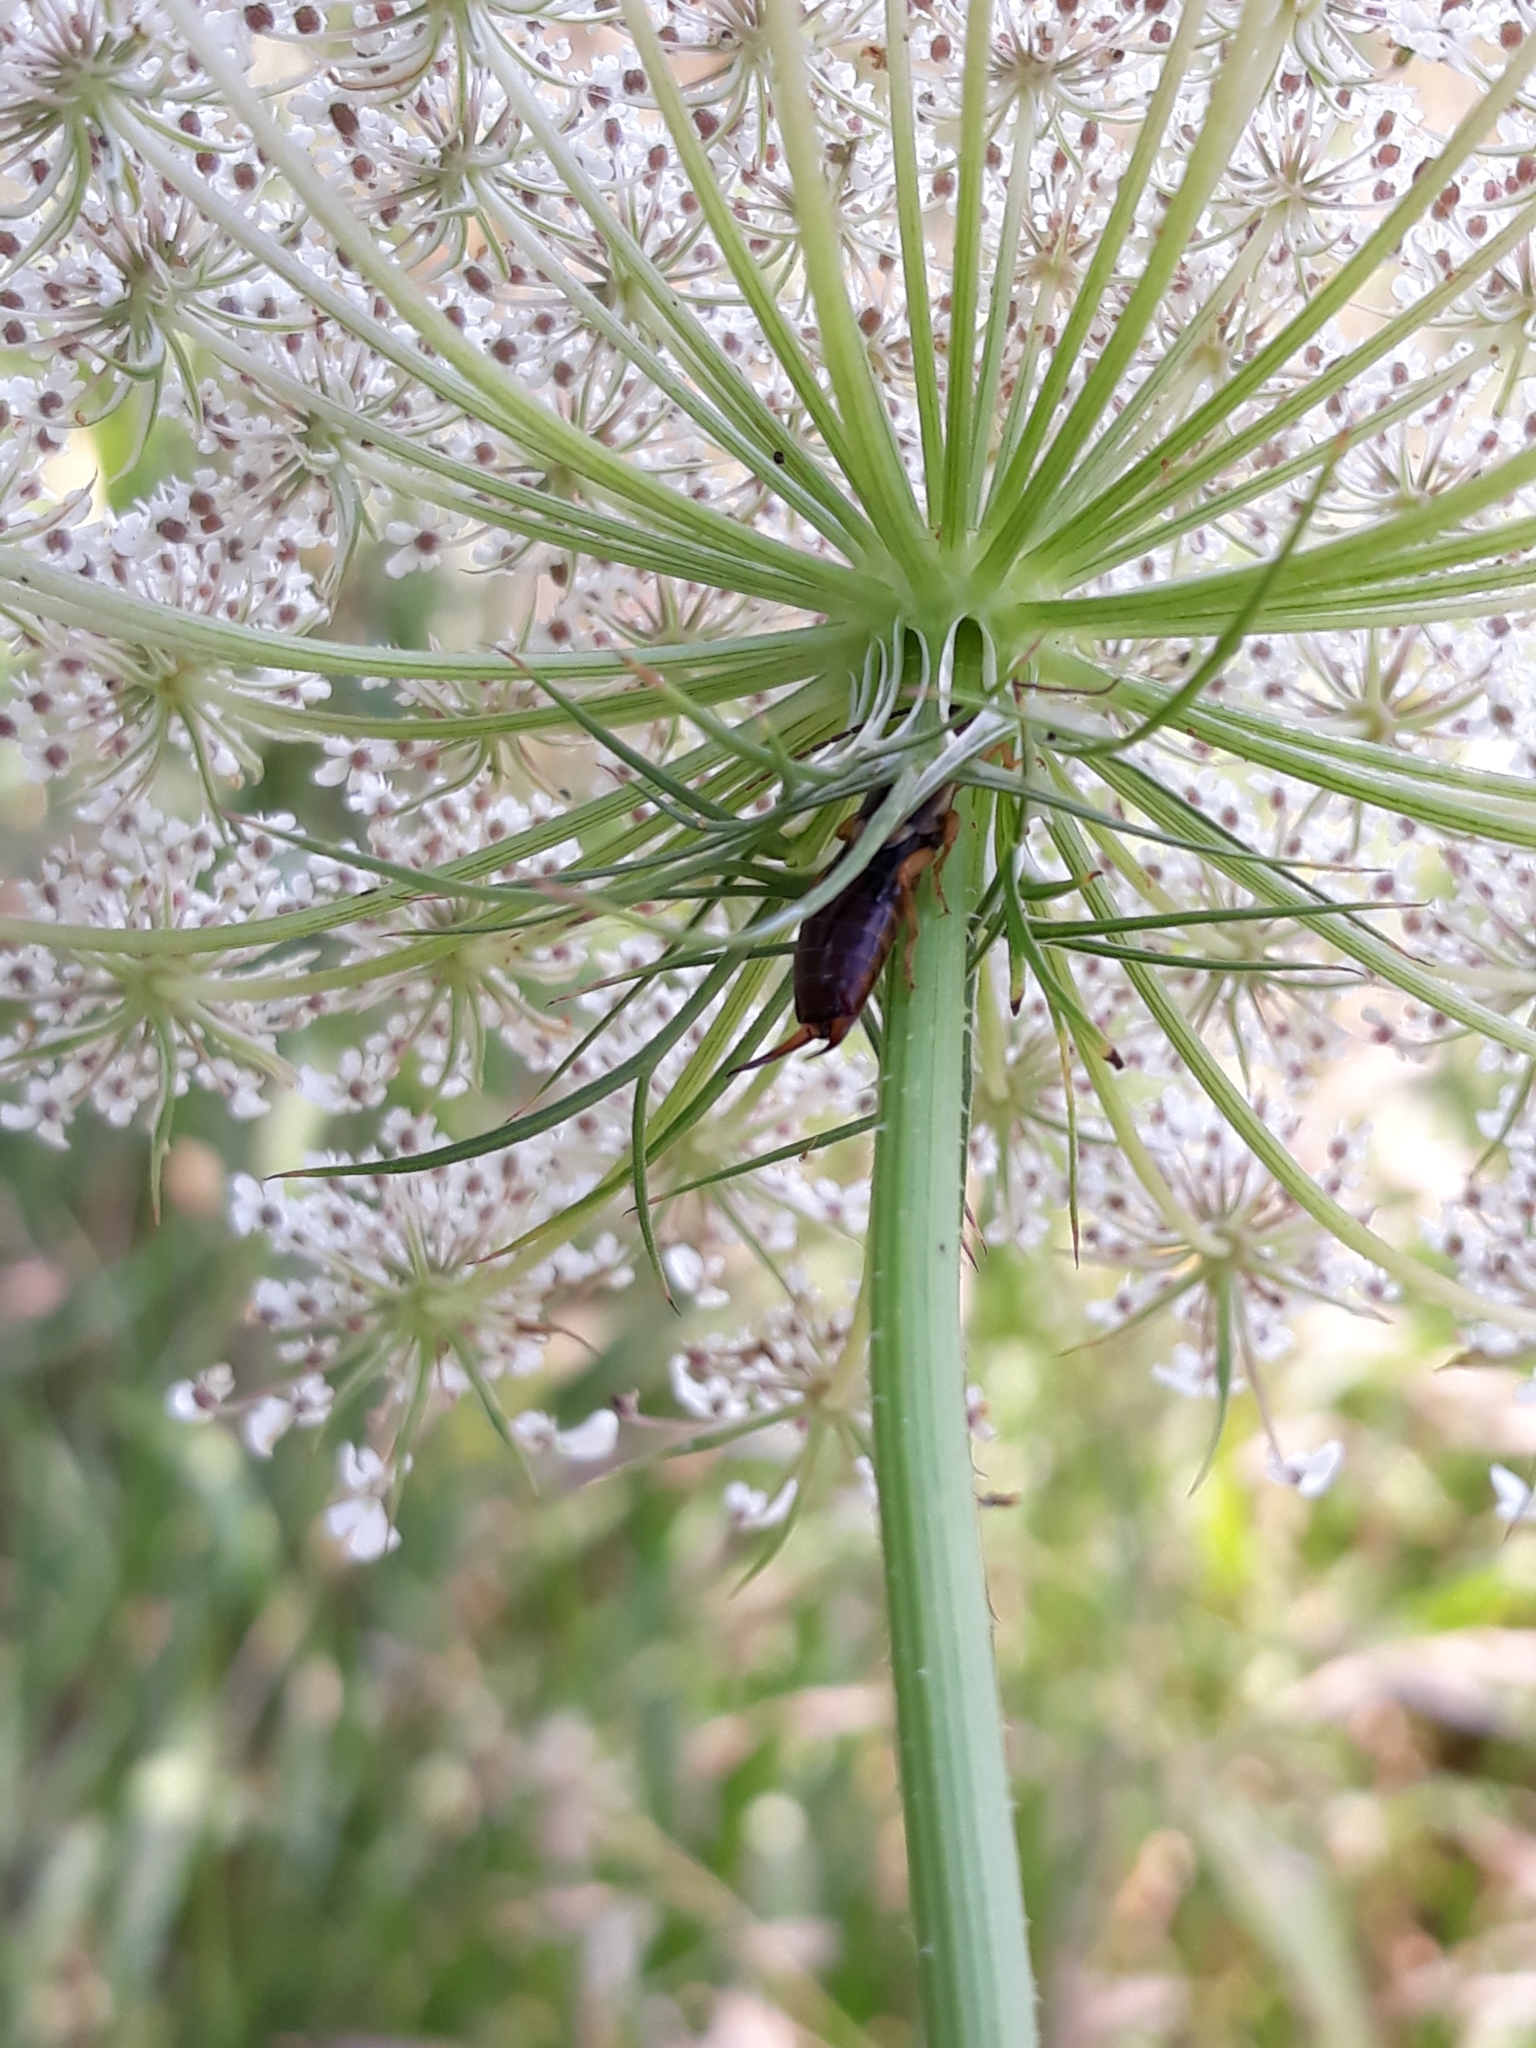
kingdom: Animalia
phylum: Arthropoda
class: Insecta
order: Dermaptera
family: Forficulidae
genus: Forficula
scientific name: Forficula
